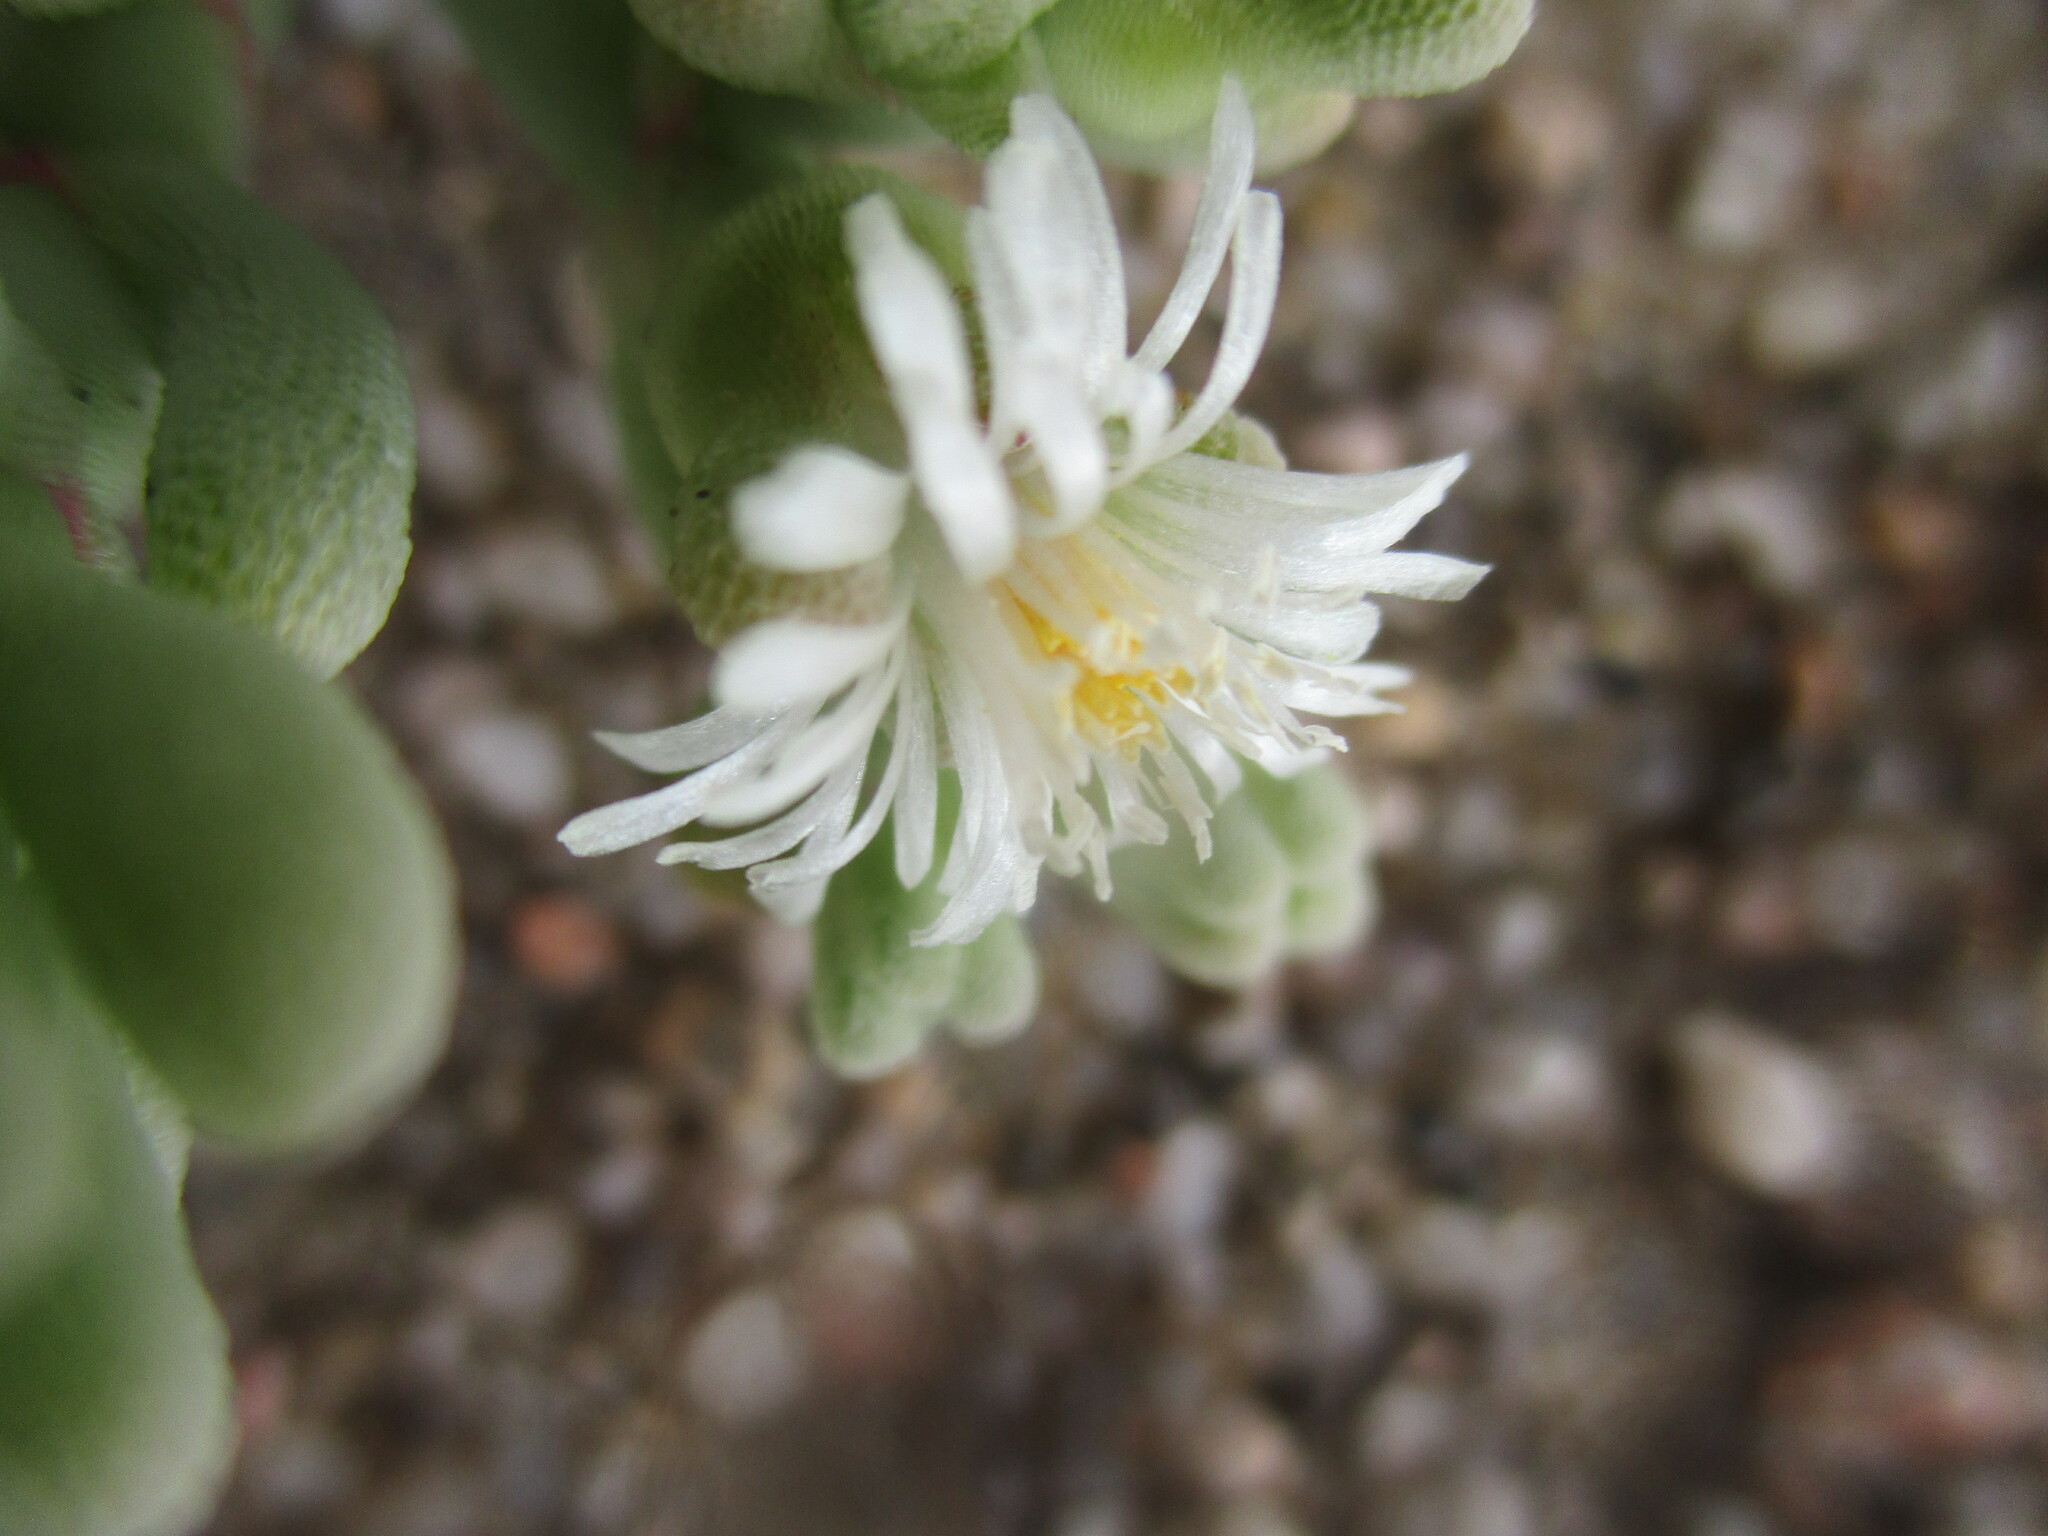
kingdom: Plantae
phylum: Tracheophyta
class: Magnoliopsida
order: Caryophyllales
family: Aizoaceae
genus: Mesembryanthemum
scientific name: Mesembryanthemum kuntzei
